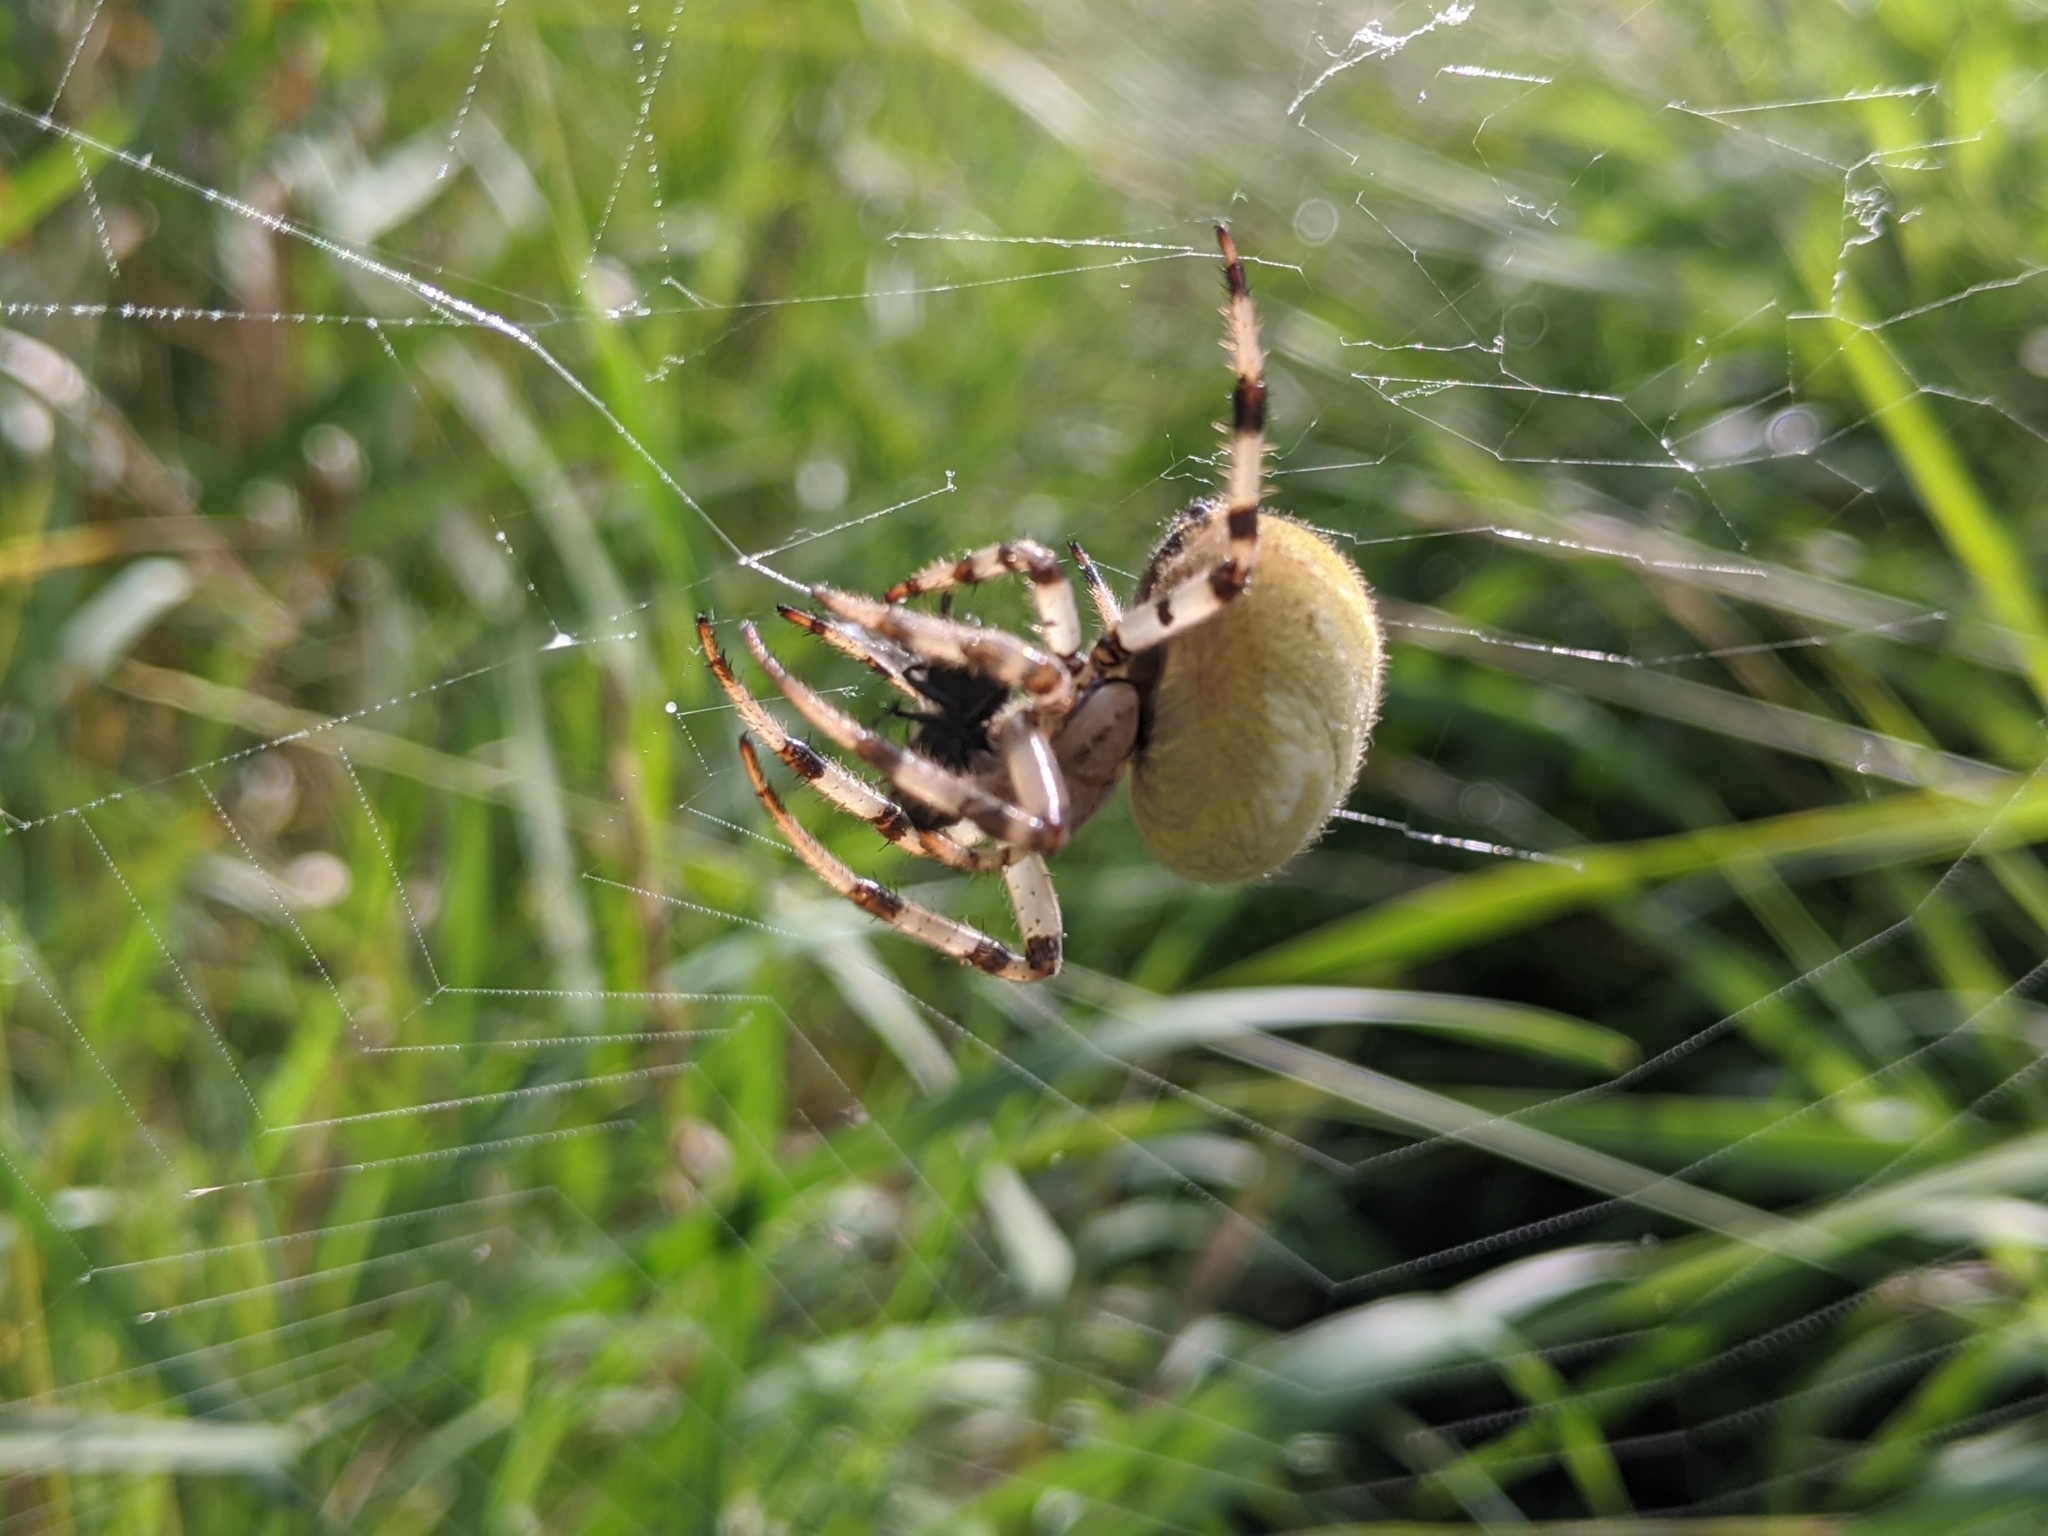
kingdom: Animalia
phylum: Arthropoda
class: Arachnida
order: Araneae
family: Araneidae
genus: Araneus
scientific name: Araneus quadratus
